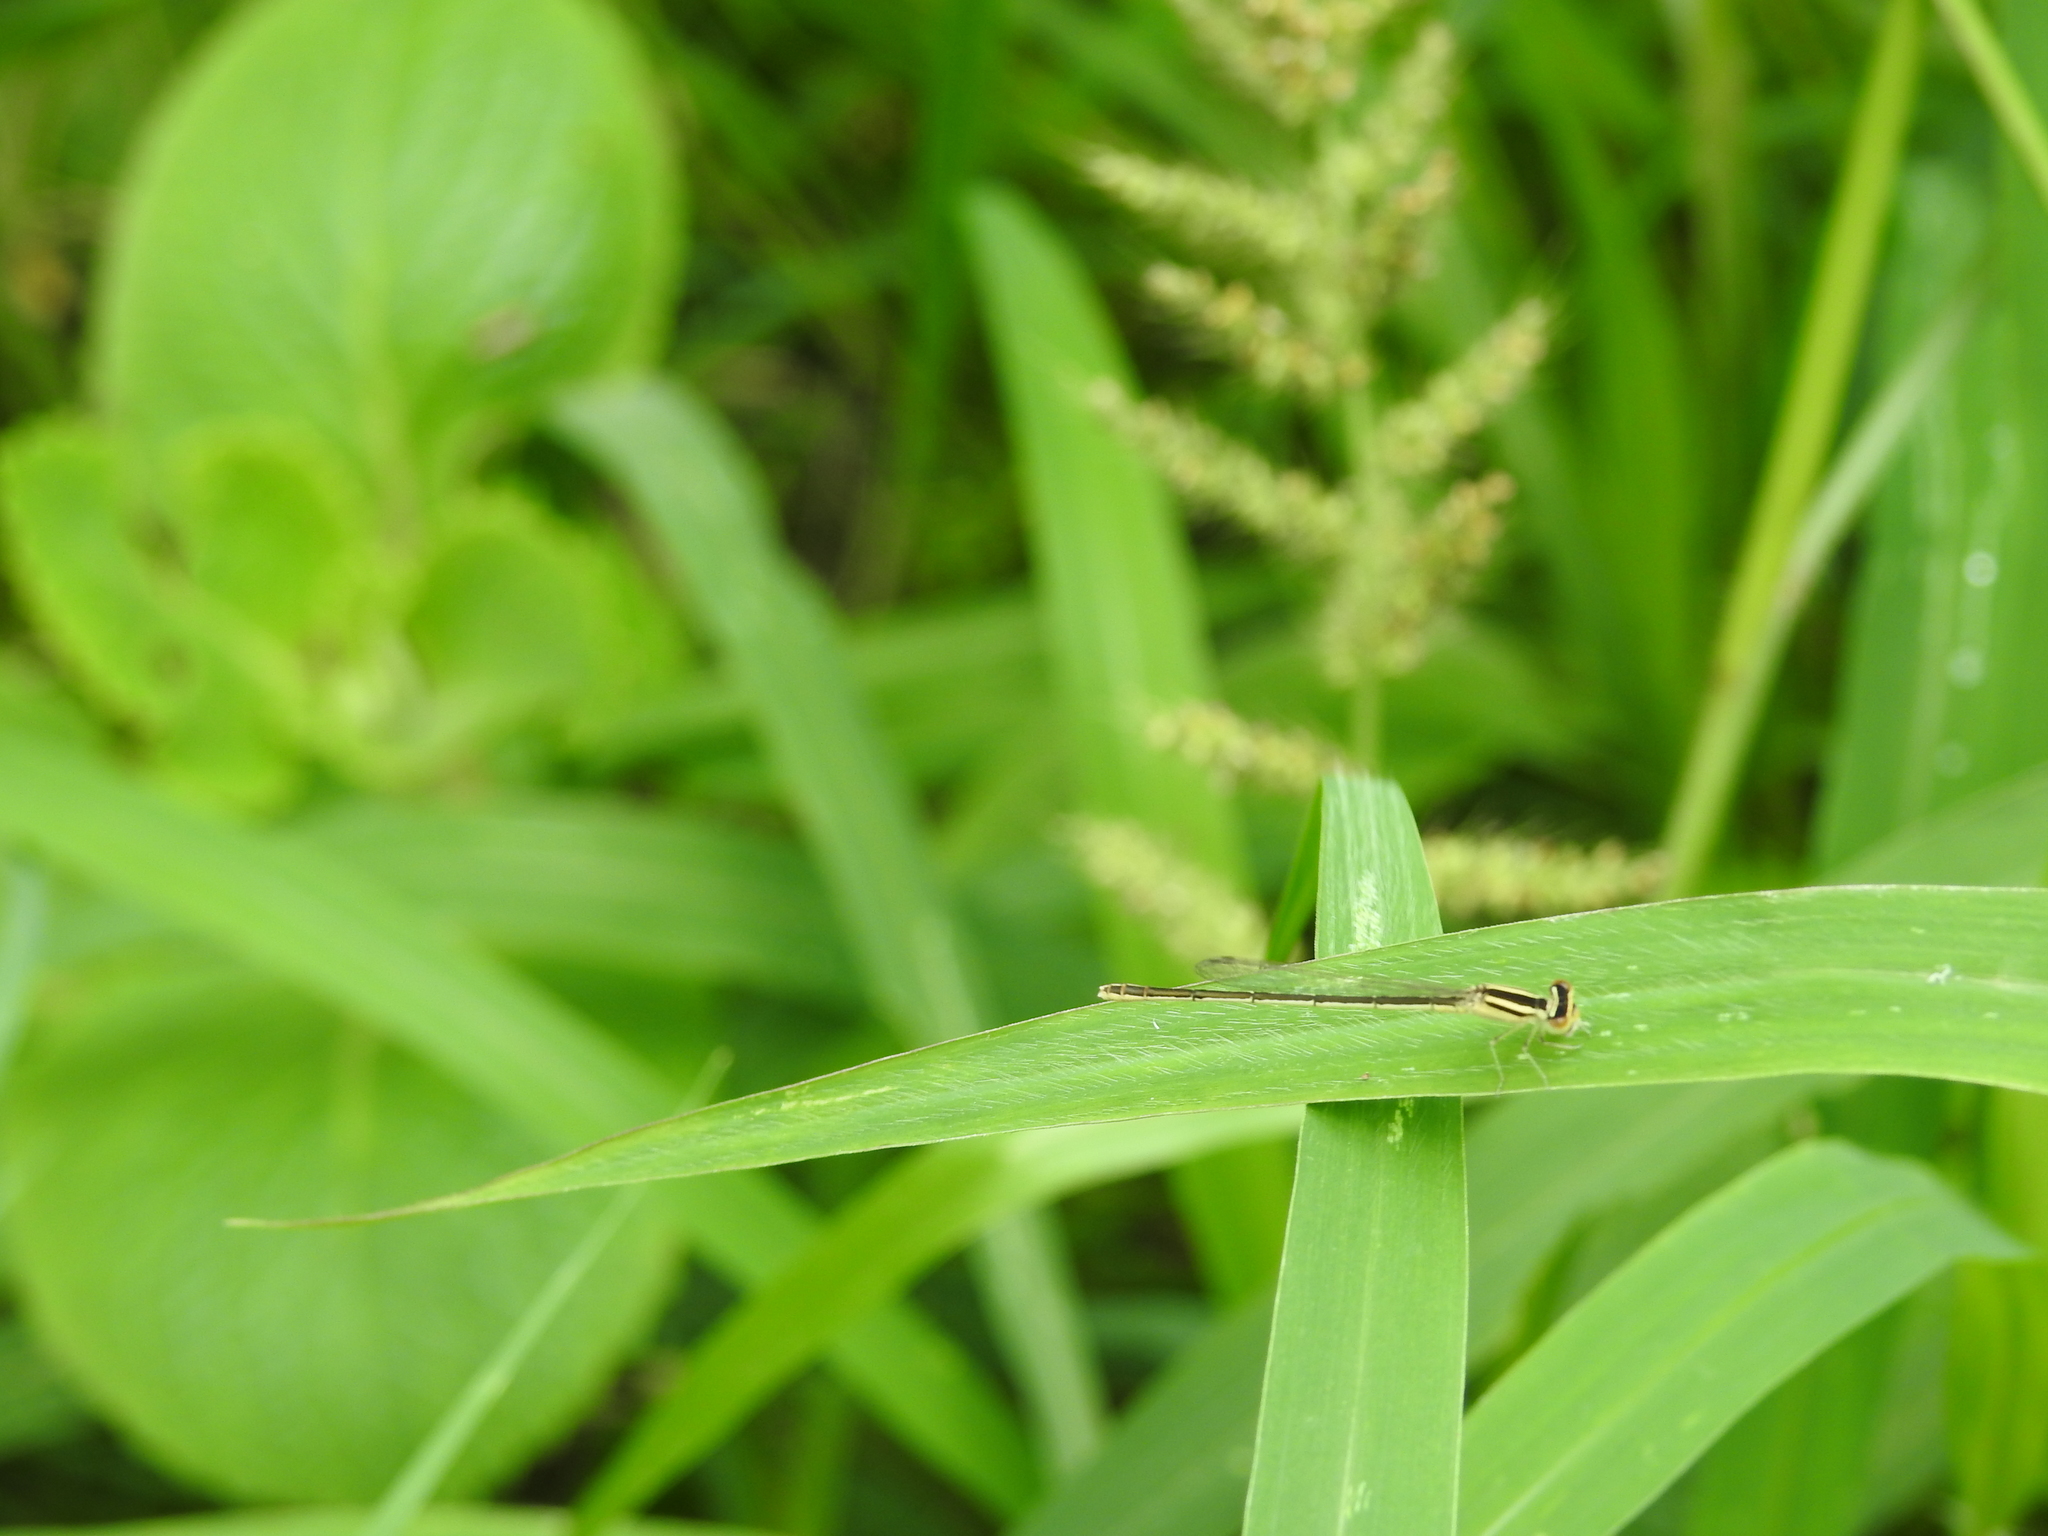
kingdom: Animalia
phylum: Arthropoda
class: Insecta
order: Odonata
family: Coenagrionidae
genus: Amphiallagma
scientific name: Amphiallagma parvum
